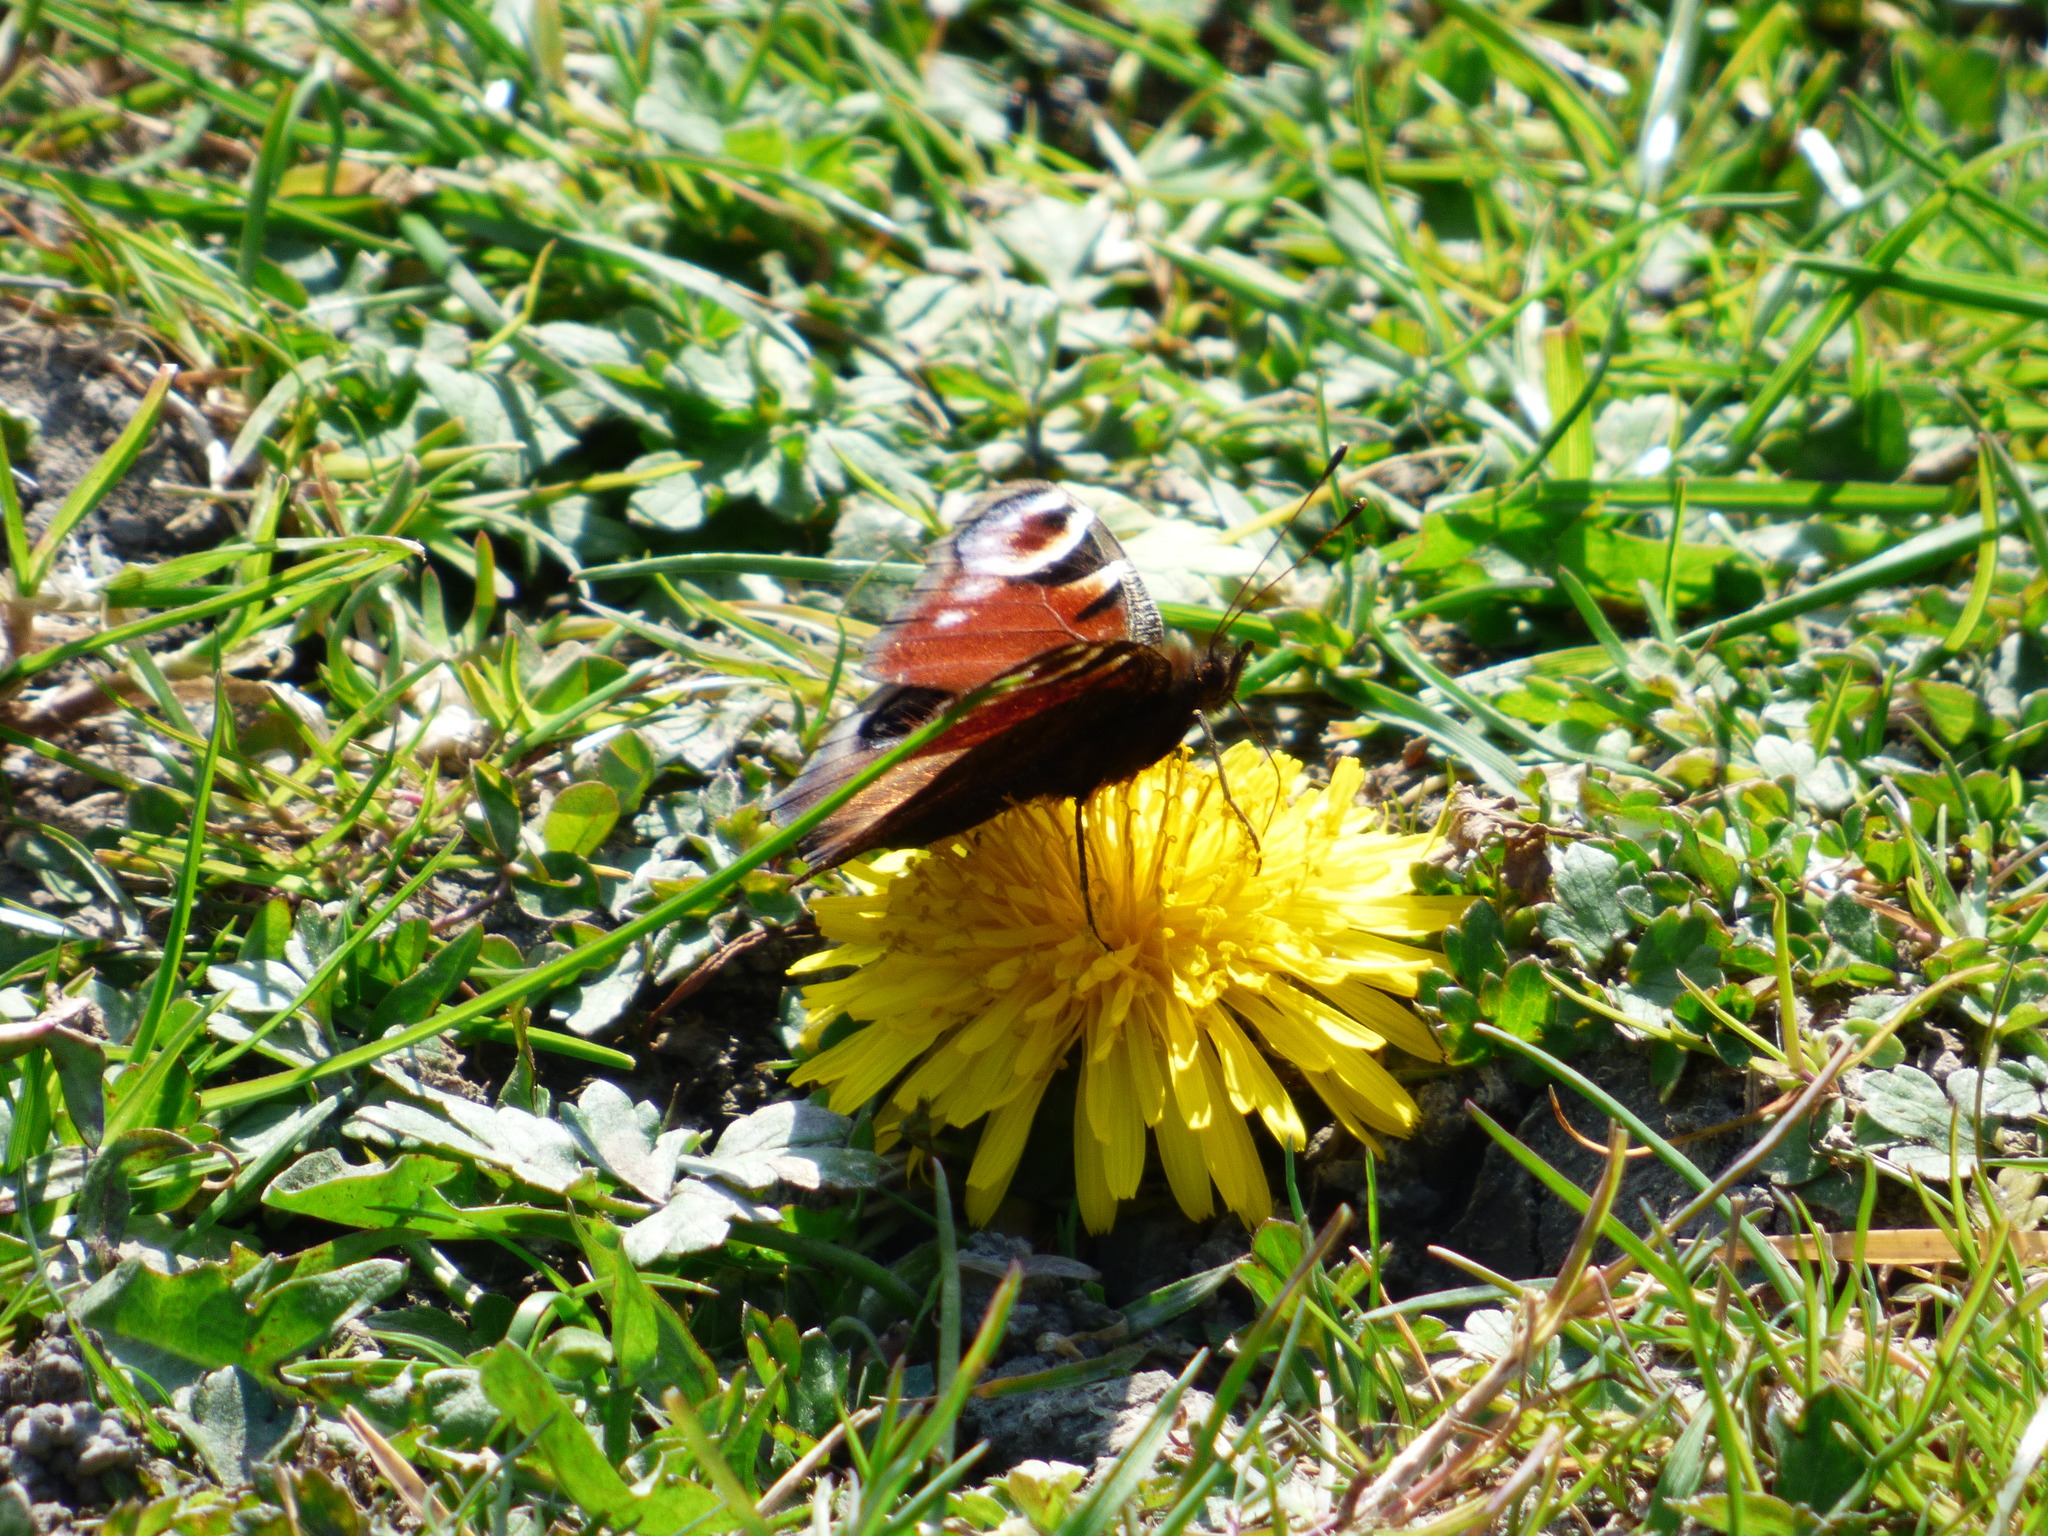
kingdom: Animalia
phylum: Arthropoda
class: Insecta
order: Lepidoptera
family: Nymphalidae
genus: Aglais
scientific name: Aglais io
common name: Peacock
